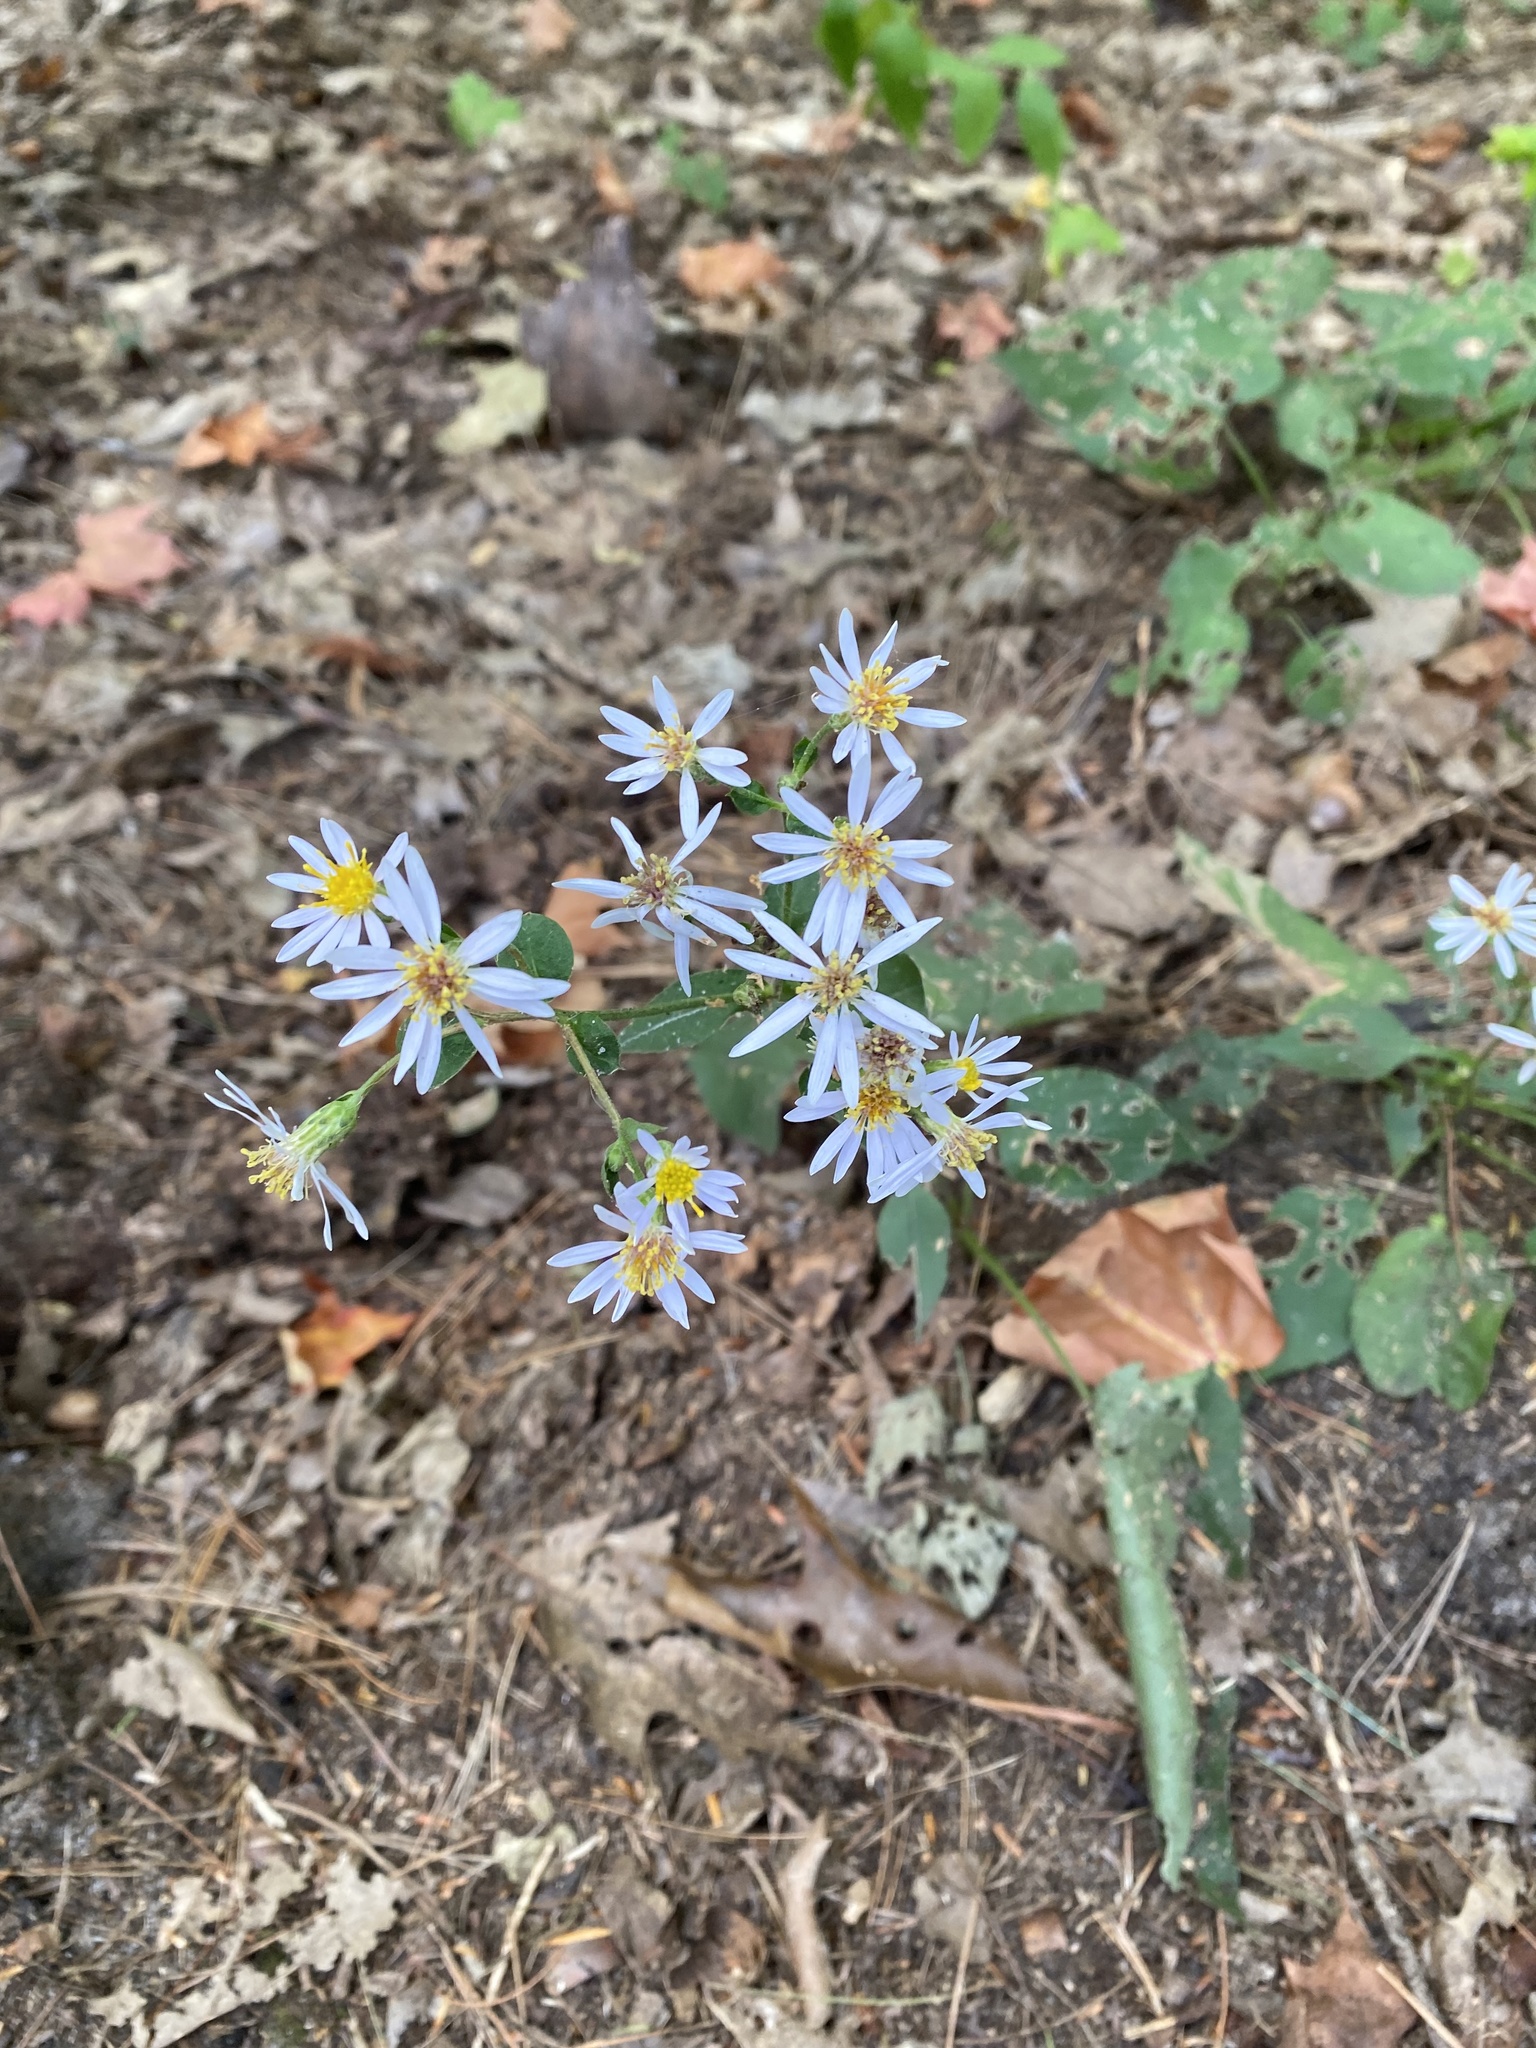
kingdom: Plantae
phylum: Tracheophyta
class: Magnoliopsida
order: Asterales
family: Asteraceae
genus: Eurybia
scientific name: Eurybia macrophylla
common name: Big-leaved aster
